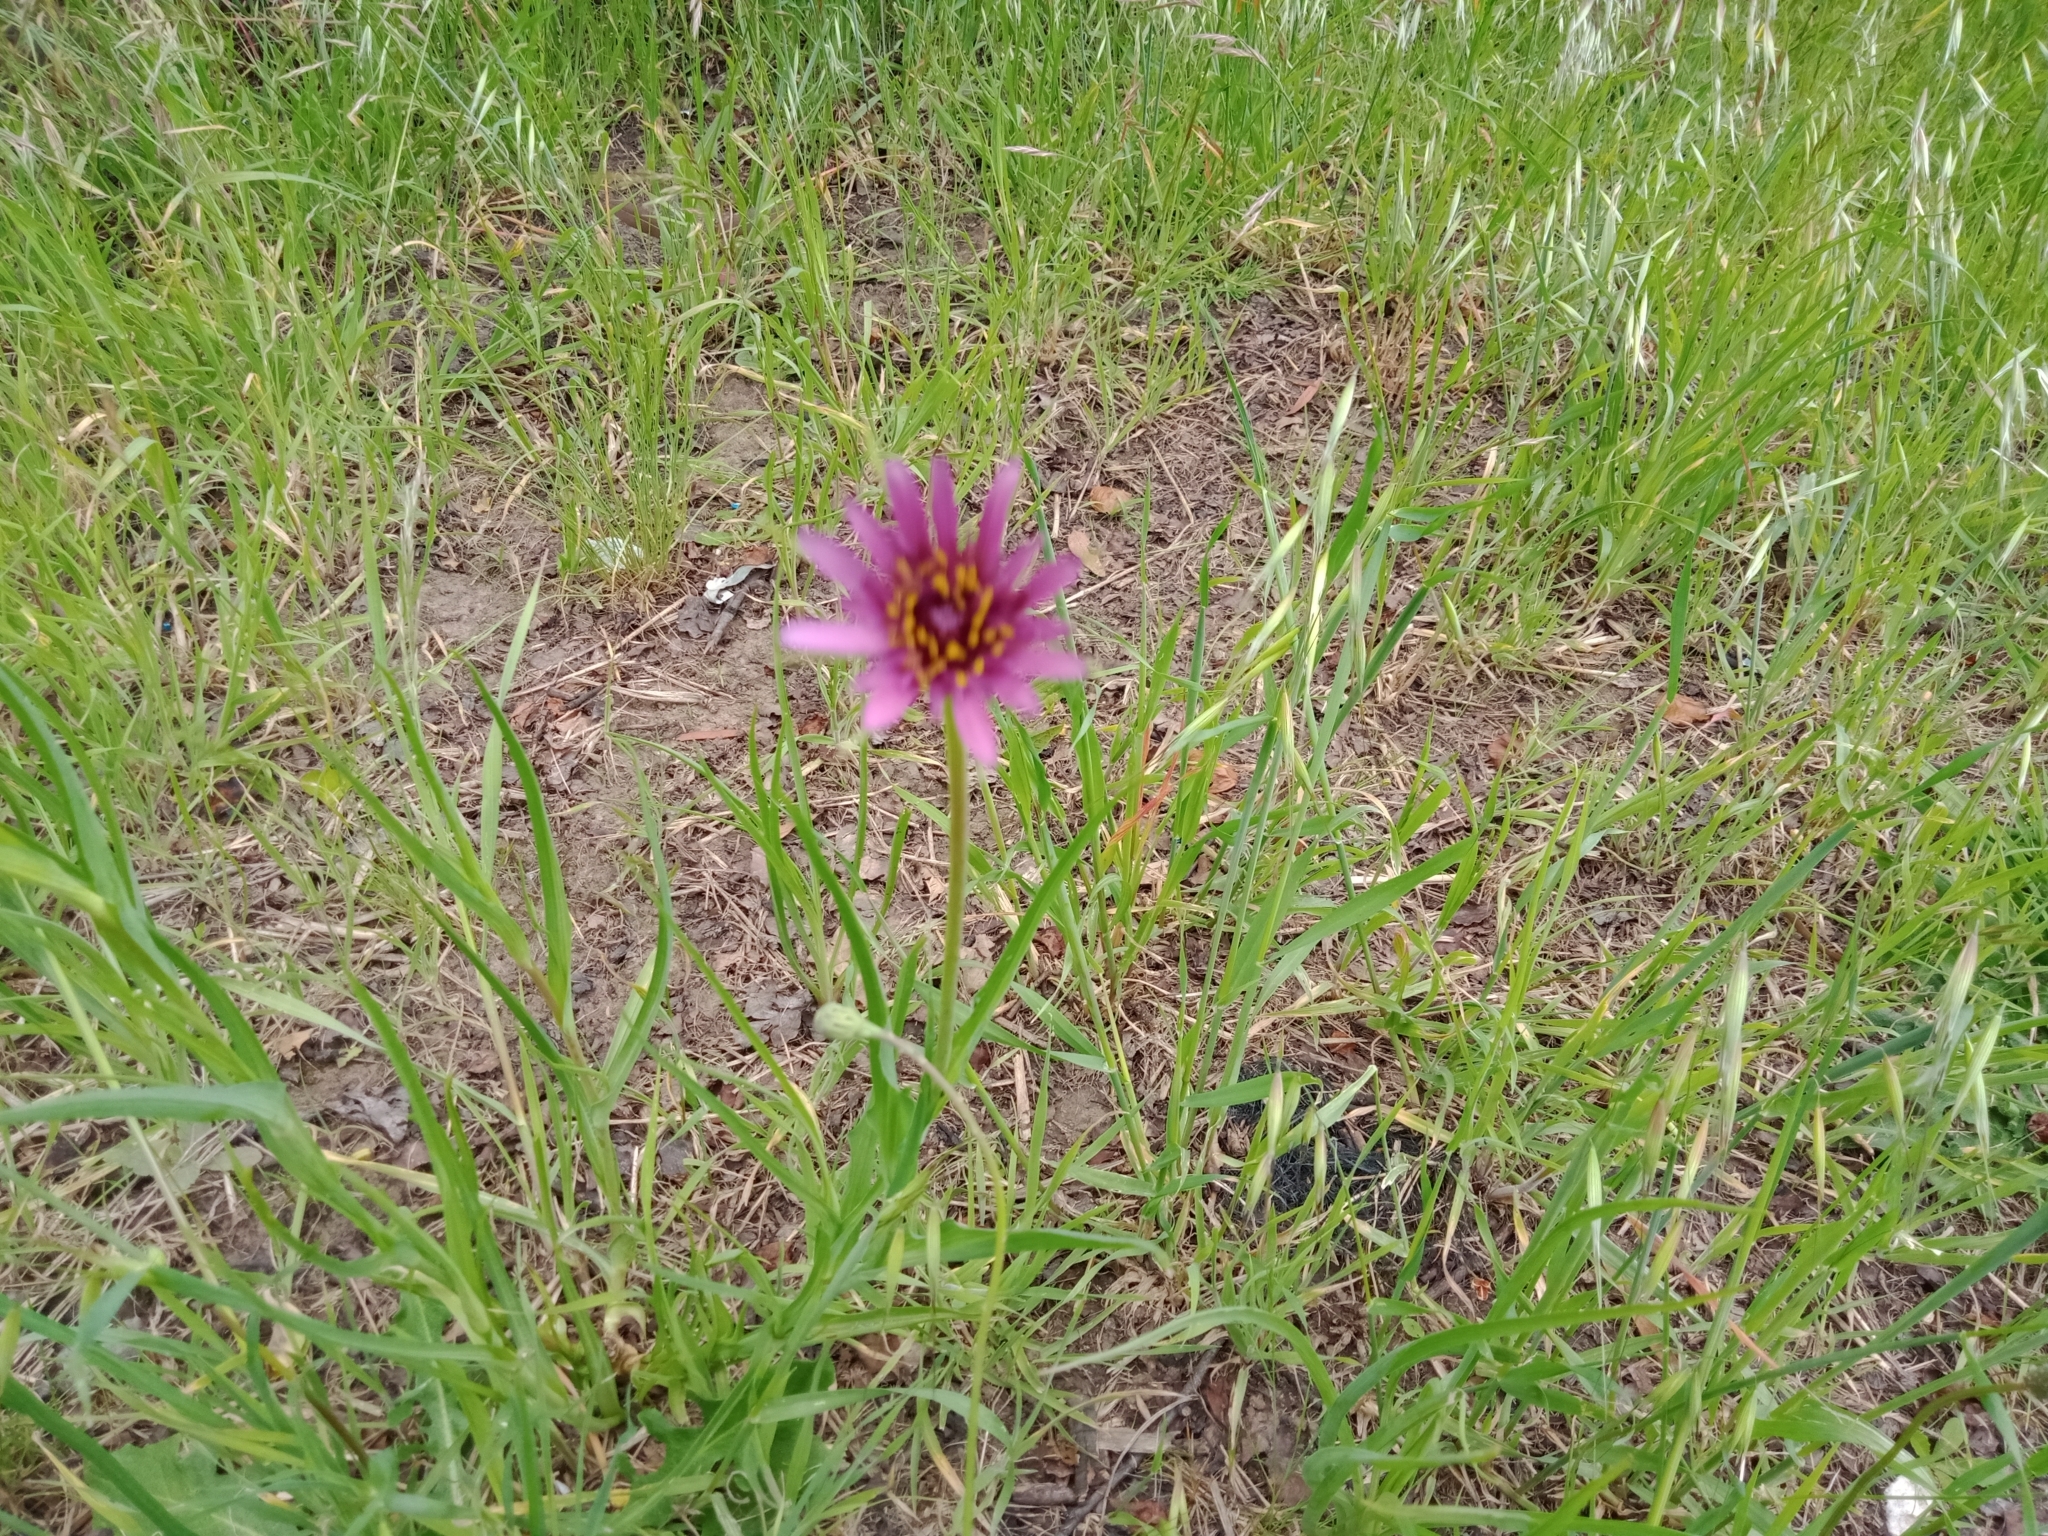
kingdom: Plantae
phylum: Tracheophyta
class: Magnoliopsida
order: Asterales
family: Asteraceae
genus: Tragopogon
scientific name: Tragopogon porrifolius
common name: Salsify
